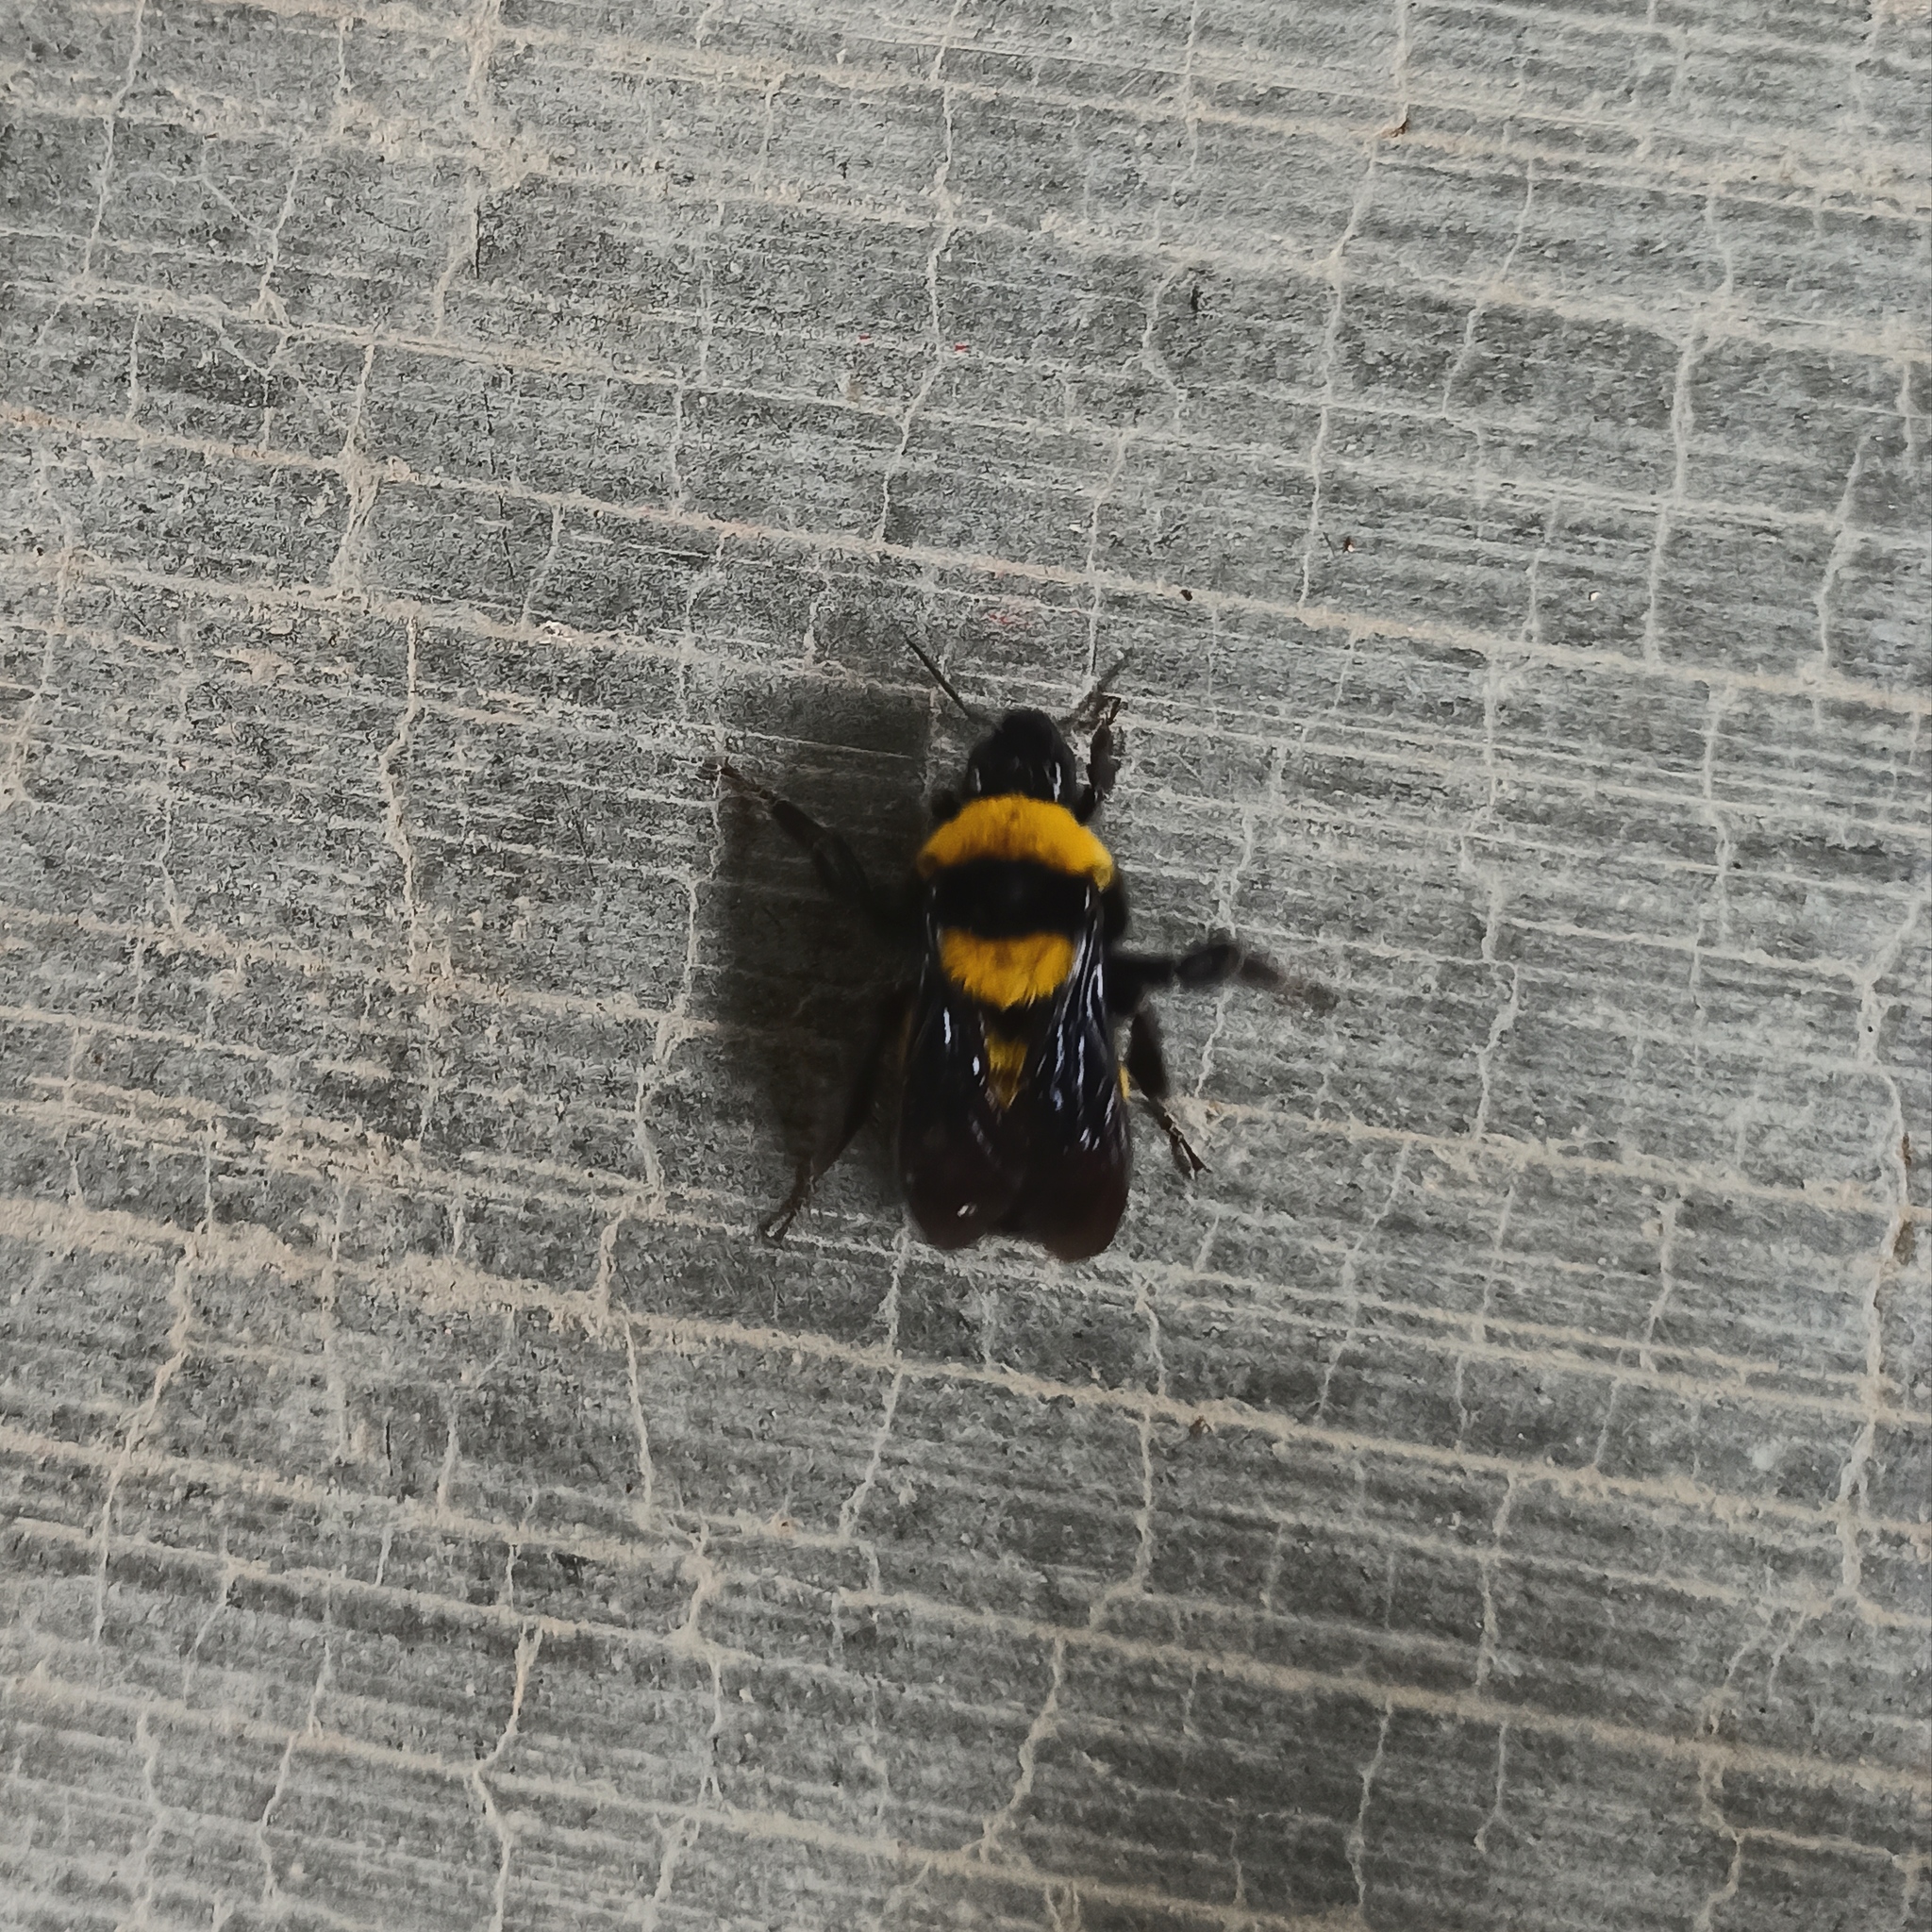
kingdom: Animalia
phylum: Arthropoda
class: Insecta
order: Hymenoptera
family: Apidae
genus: Bombus
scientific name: Bombus sonorus
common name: Sonoran bumble bee
